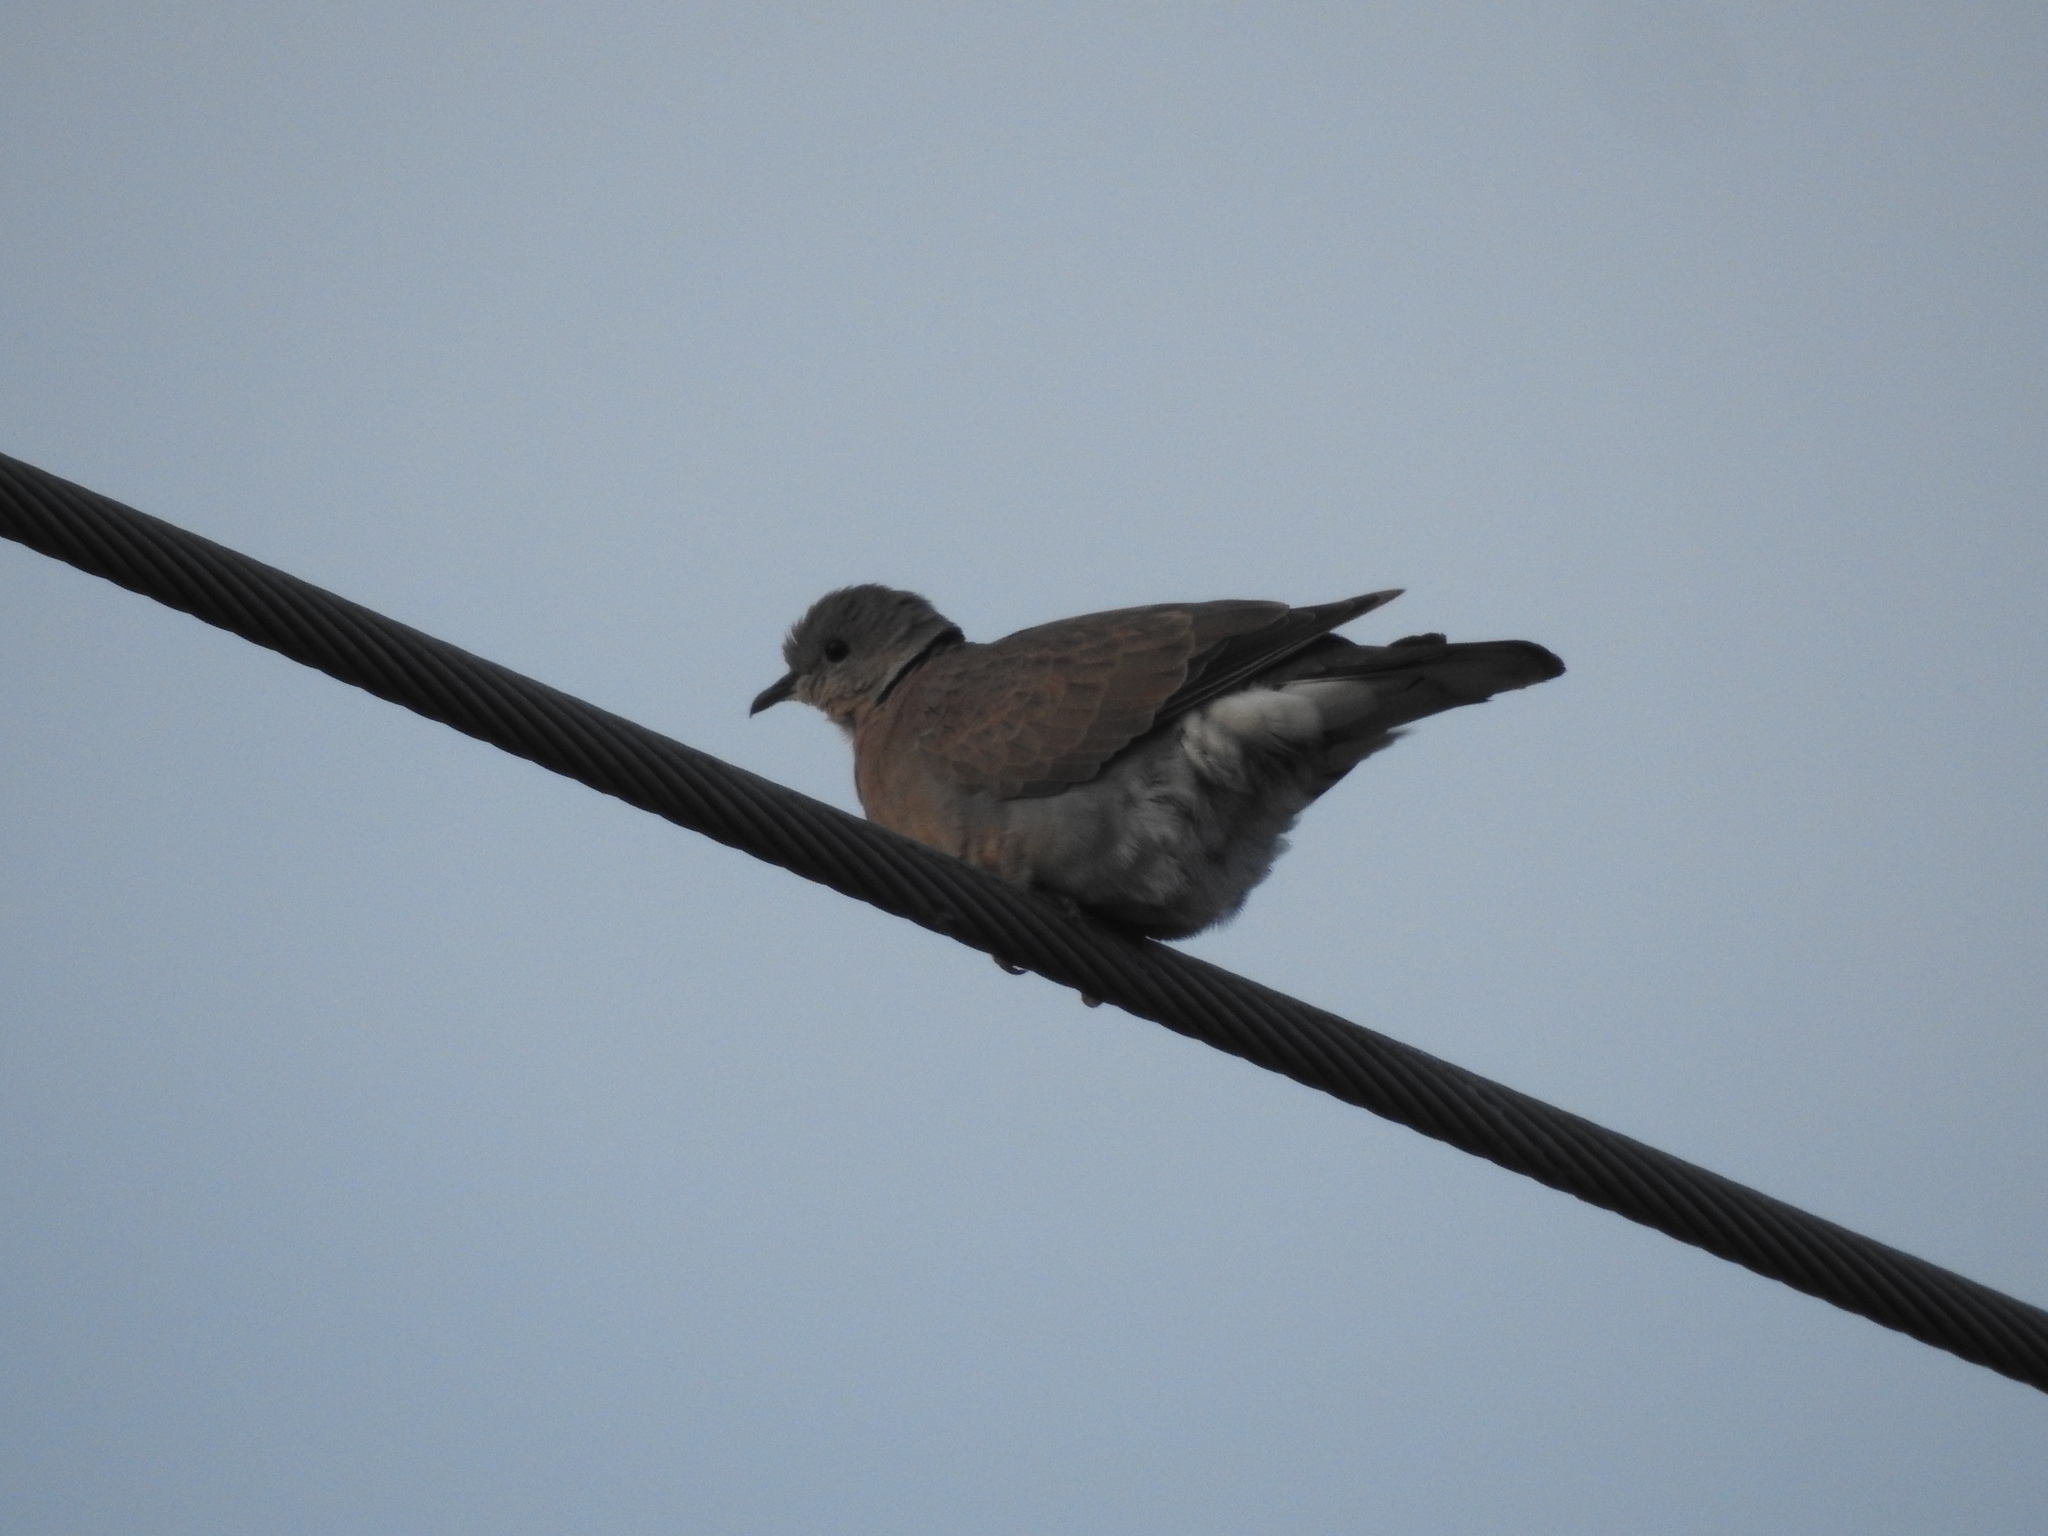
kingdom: Animalia
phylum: Chordata
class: Aves
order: Columbiformes
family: Columbidae
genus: Streptopelia
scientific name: Streptopelia tranquebarica
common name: Red turtle dove
